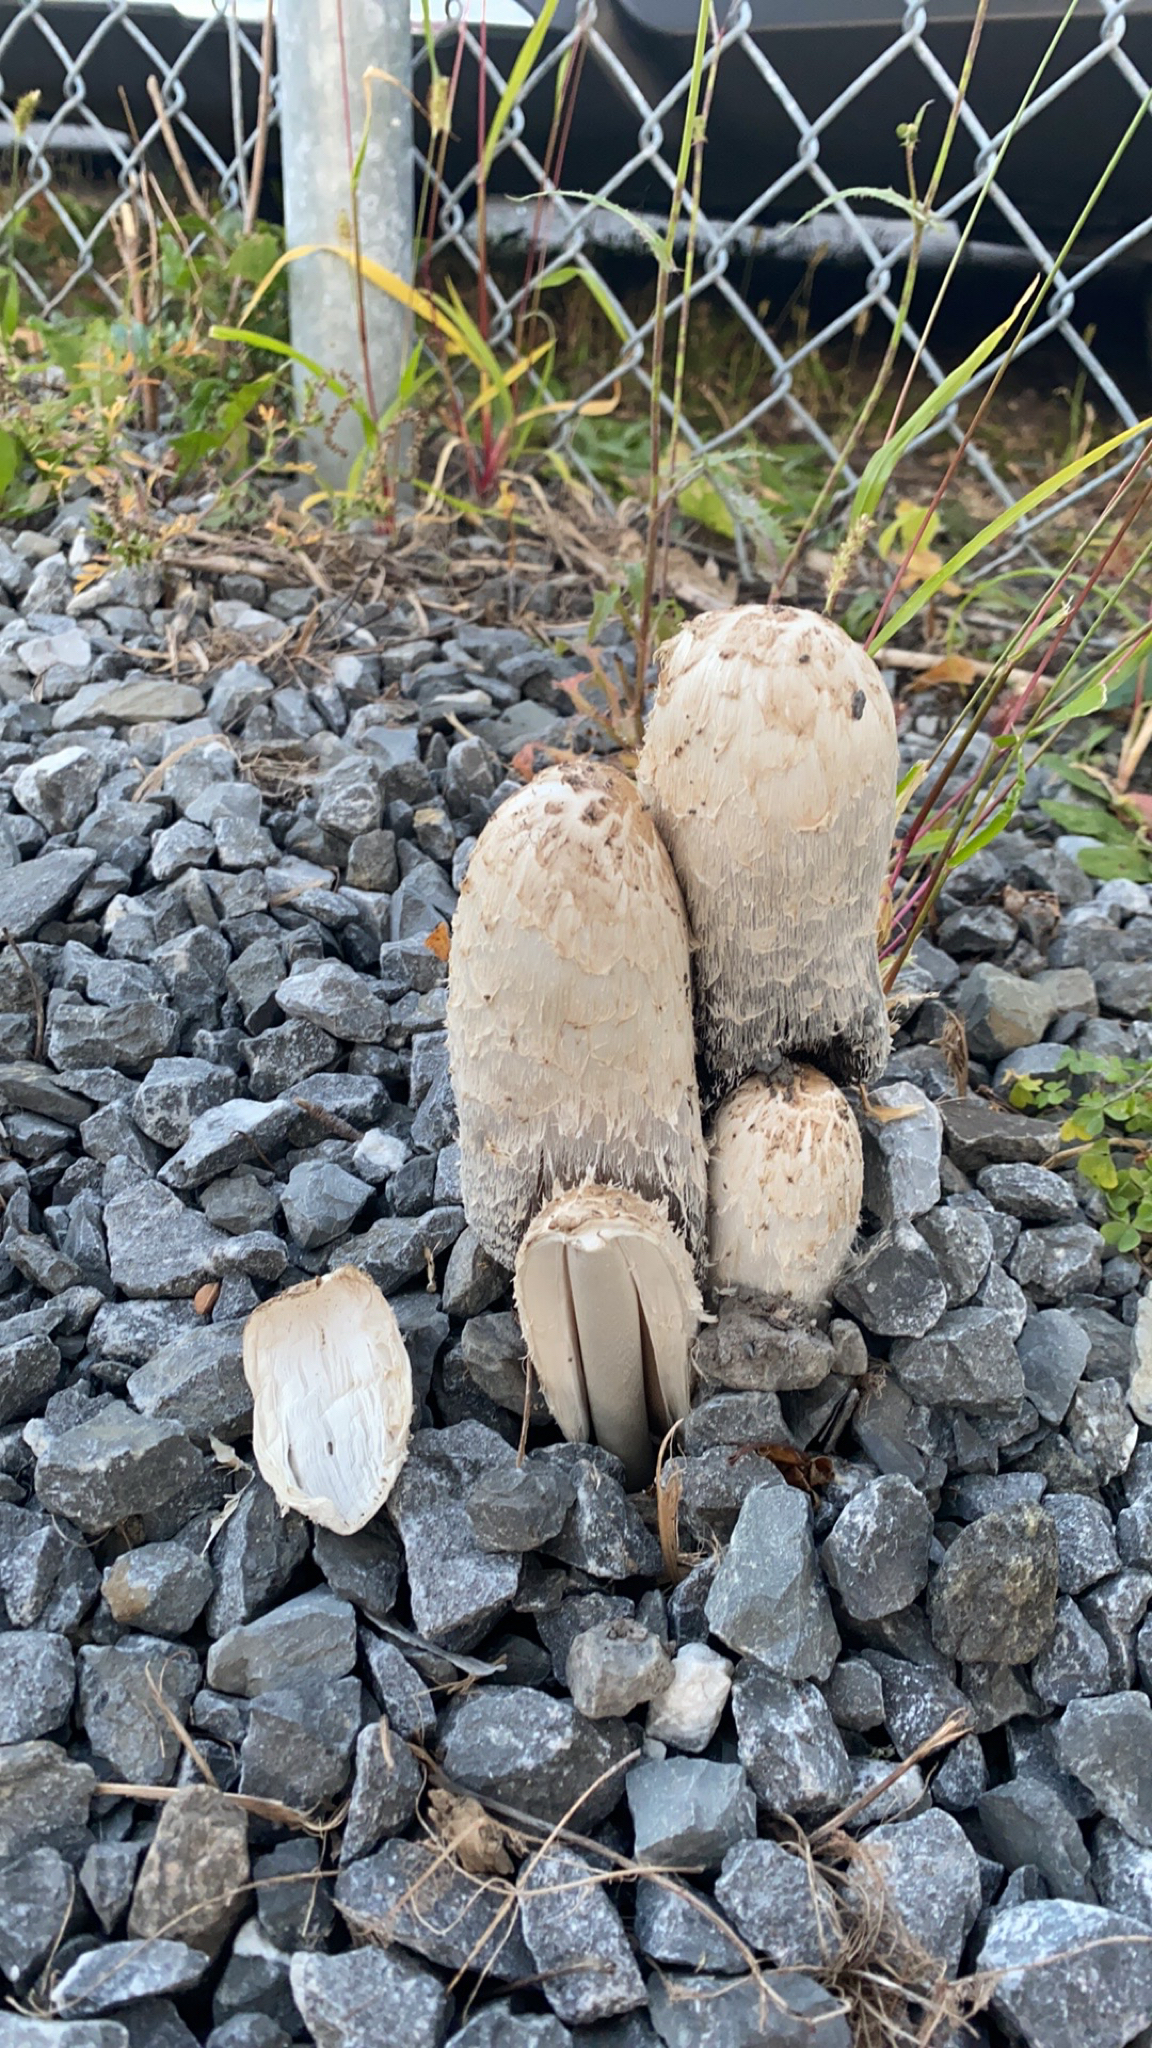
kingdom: Fungi
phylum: Basidiomycota
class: Agaricomycetes
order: Agaricales
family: Agaricaceae
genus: Coprinus
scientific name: Coprinus comatus
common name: Lawyer's wig
